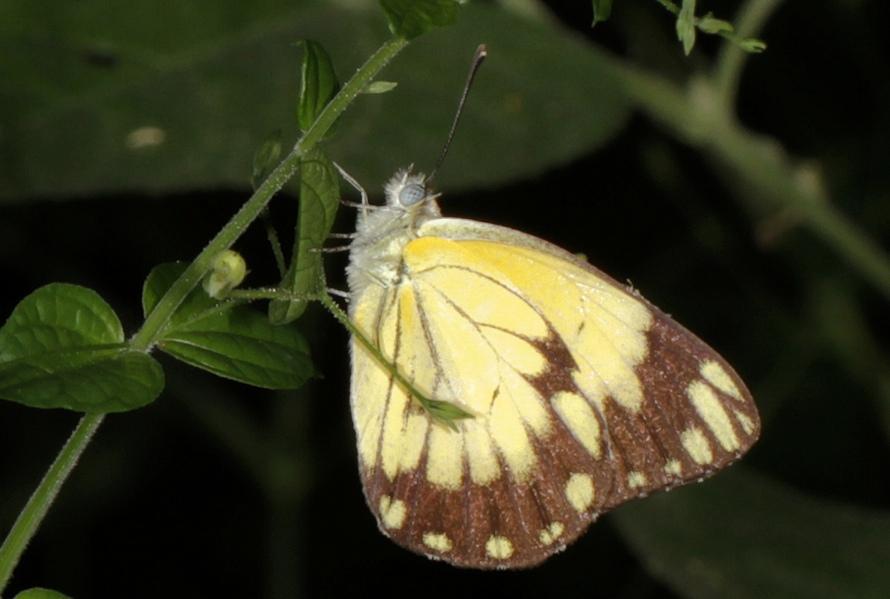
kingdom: Animalia
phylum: Arthropoda
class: Insecta
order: Lepidoptera
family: Pieridae
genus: Belenois
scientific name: Belenois creona
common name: African caper white
